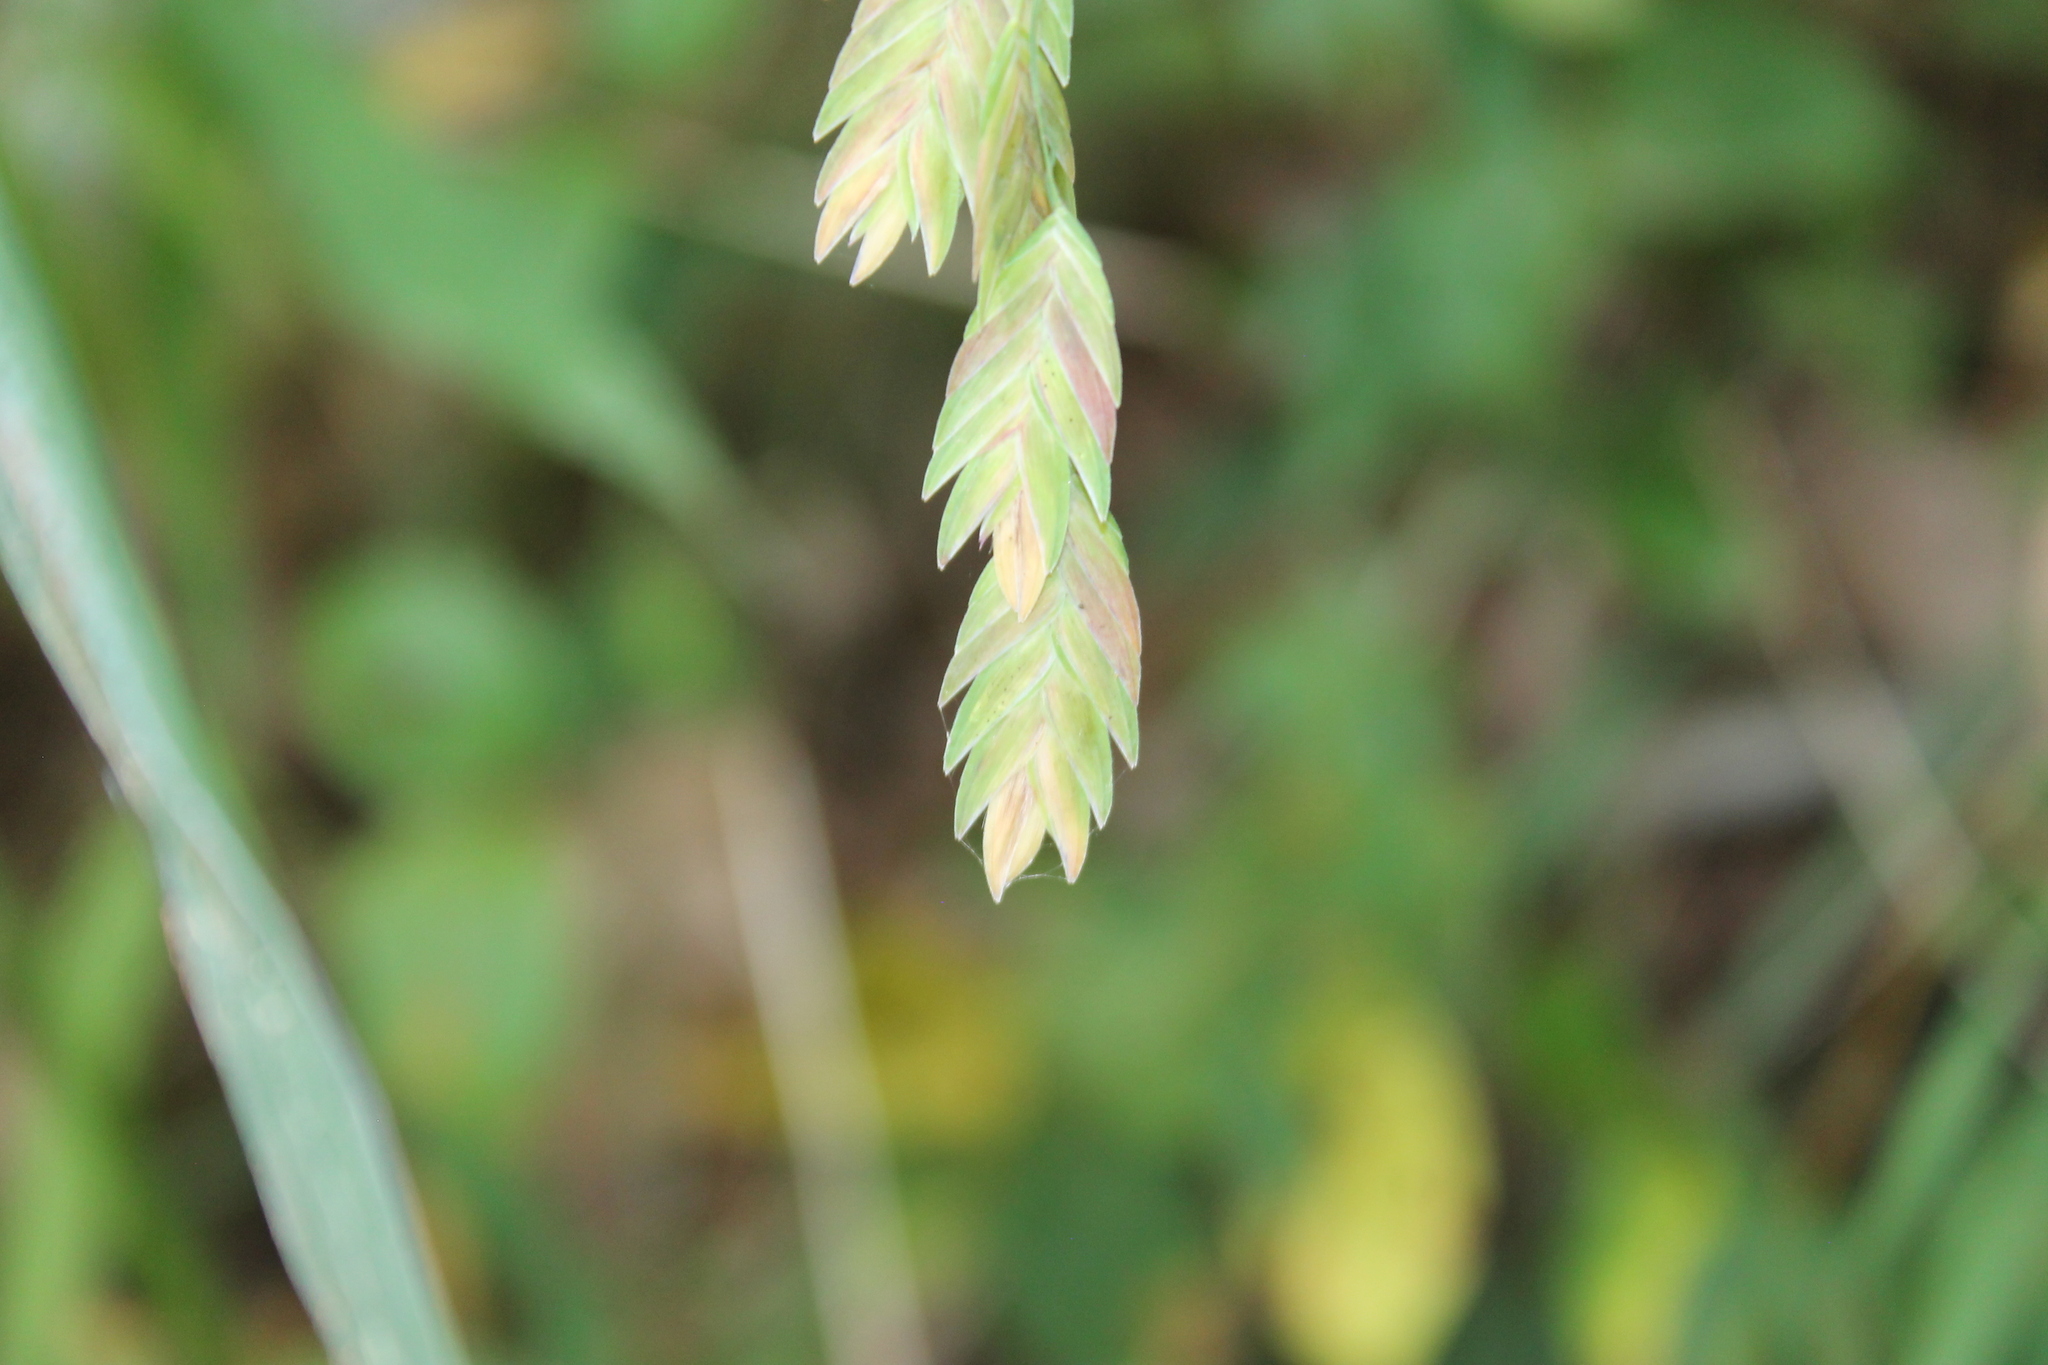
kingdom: Plantae
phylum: Tracheophyta
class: Liliopsida
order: Poales
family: Poaceae
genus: Chasmanthium
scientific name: Chasmanthium latifolium
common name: Broad-leaved chasmanthium
